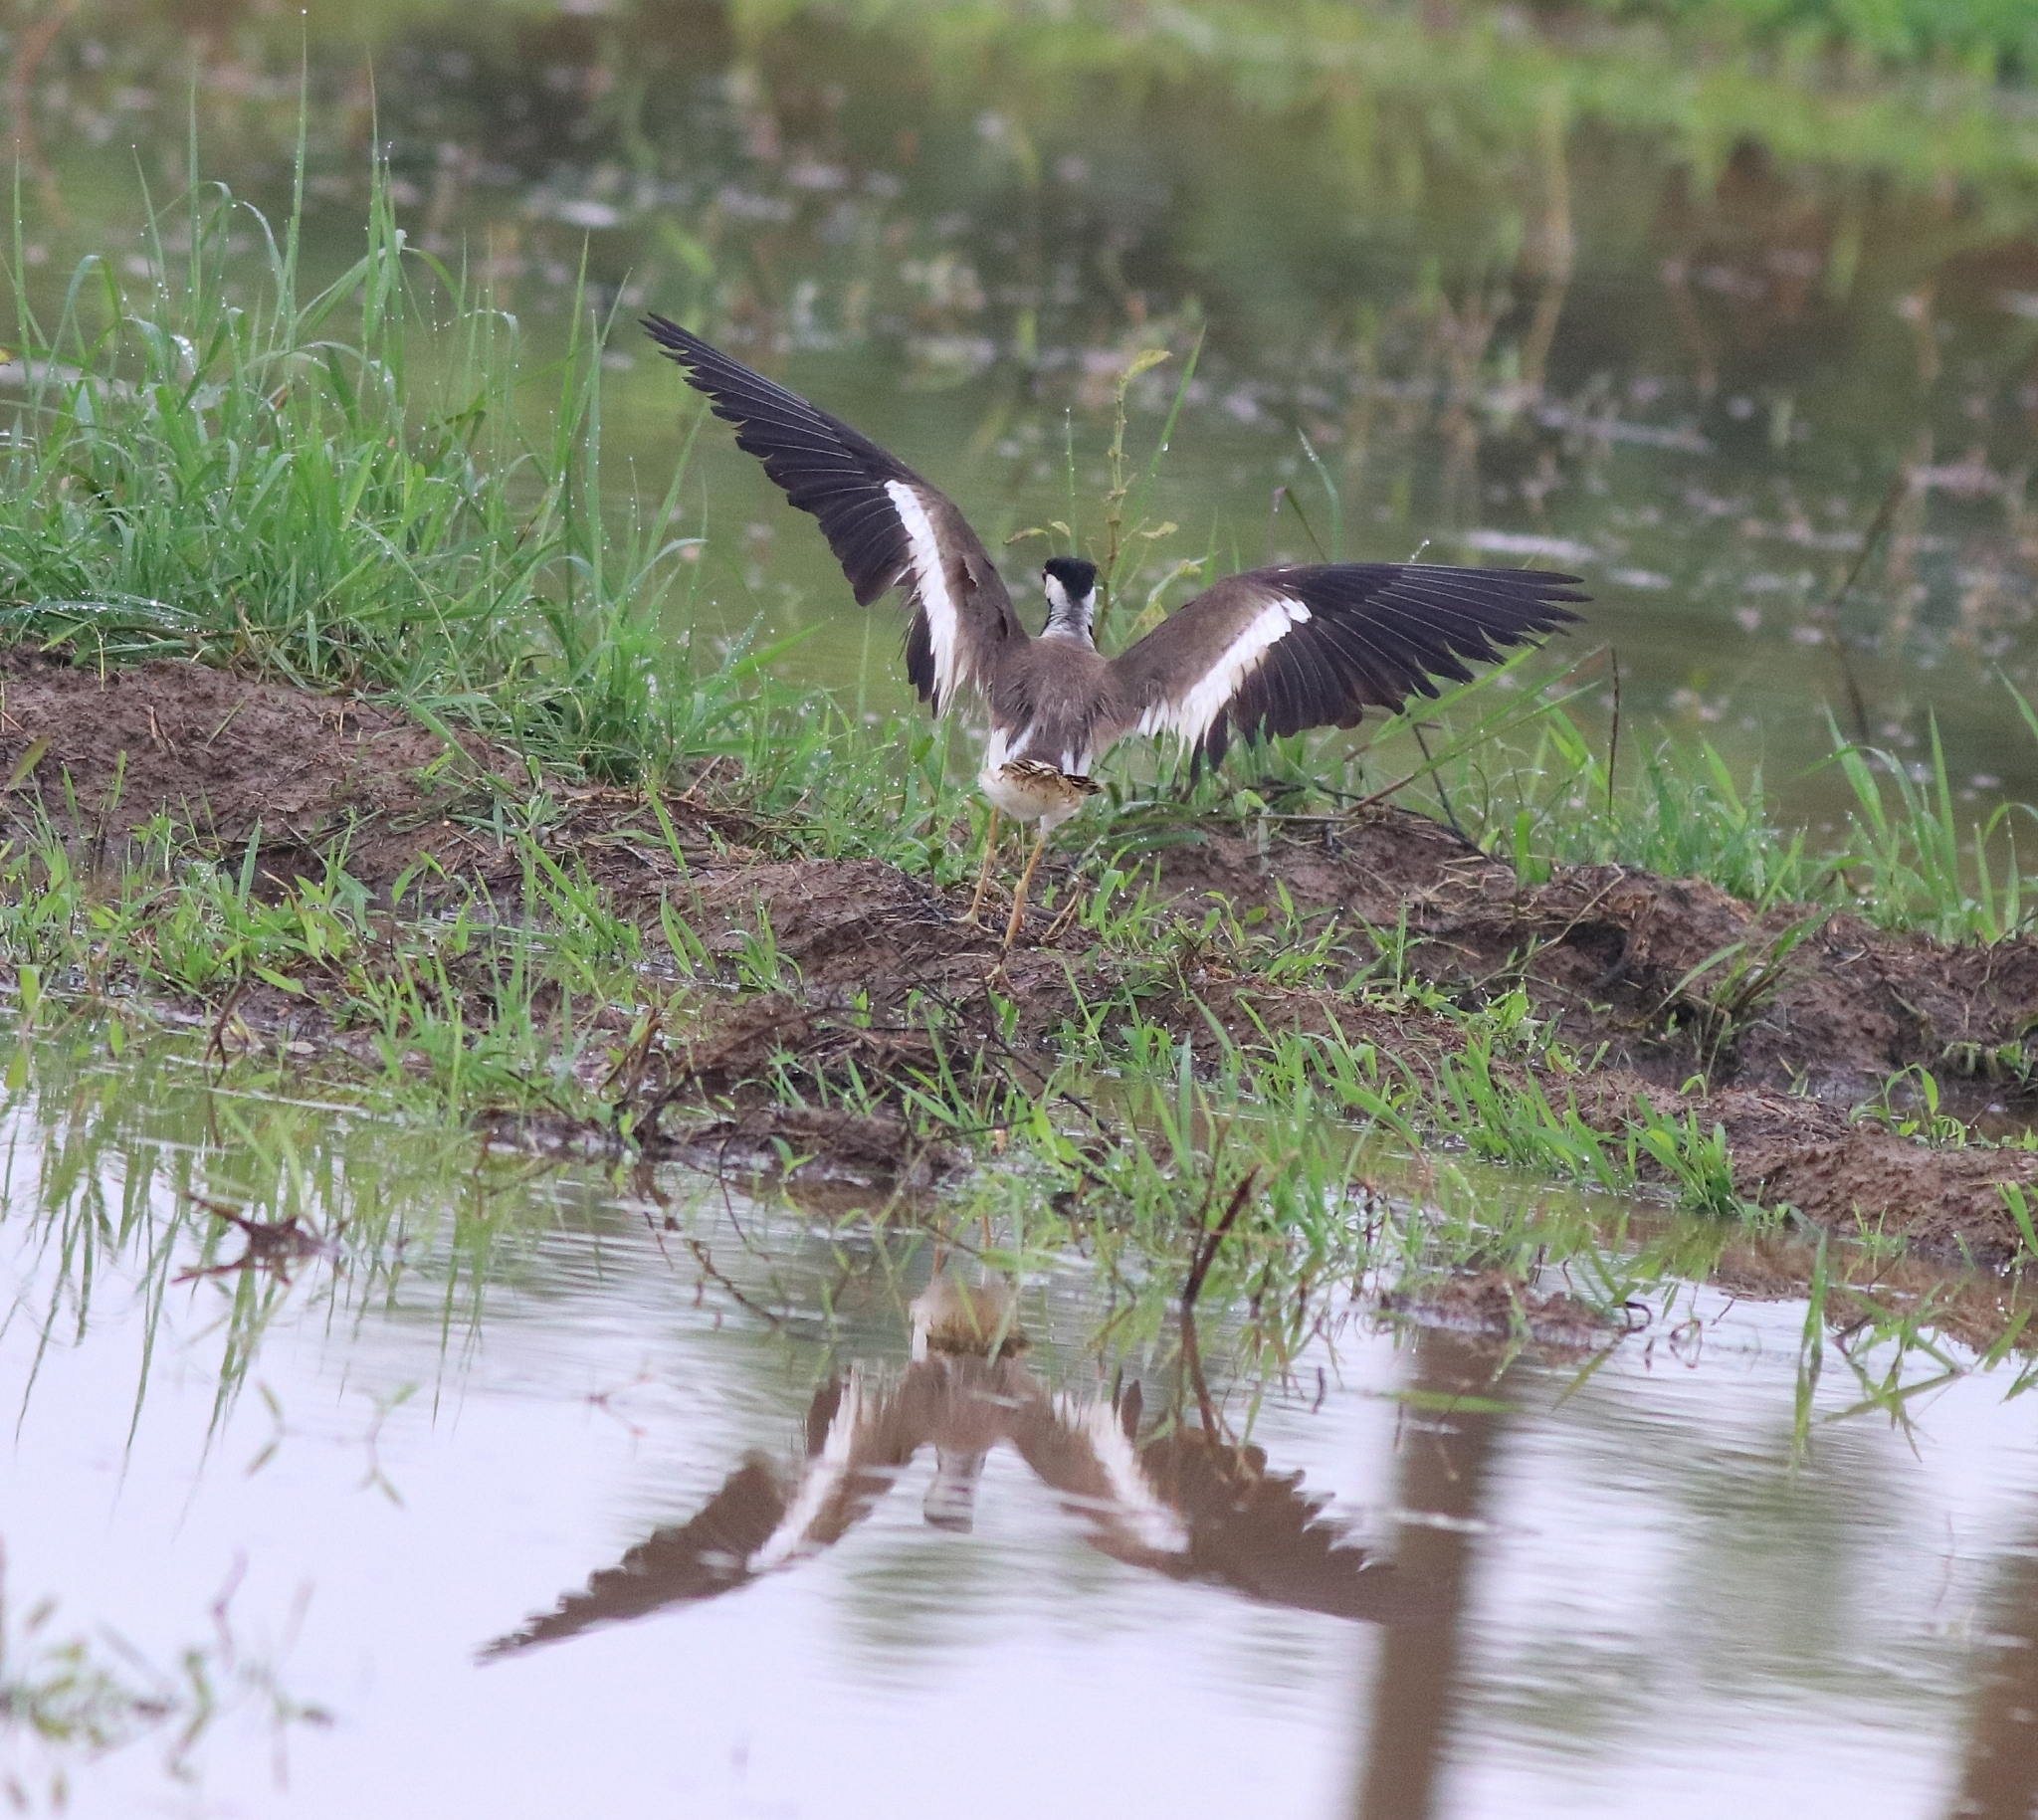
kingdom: Animalia
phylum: Chordata
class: Aves
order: Charadriiformes
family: Charadriidae
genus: Vanellus
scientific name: Vanellus indicus
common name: Red-wattled lapwing
